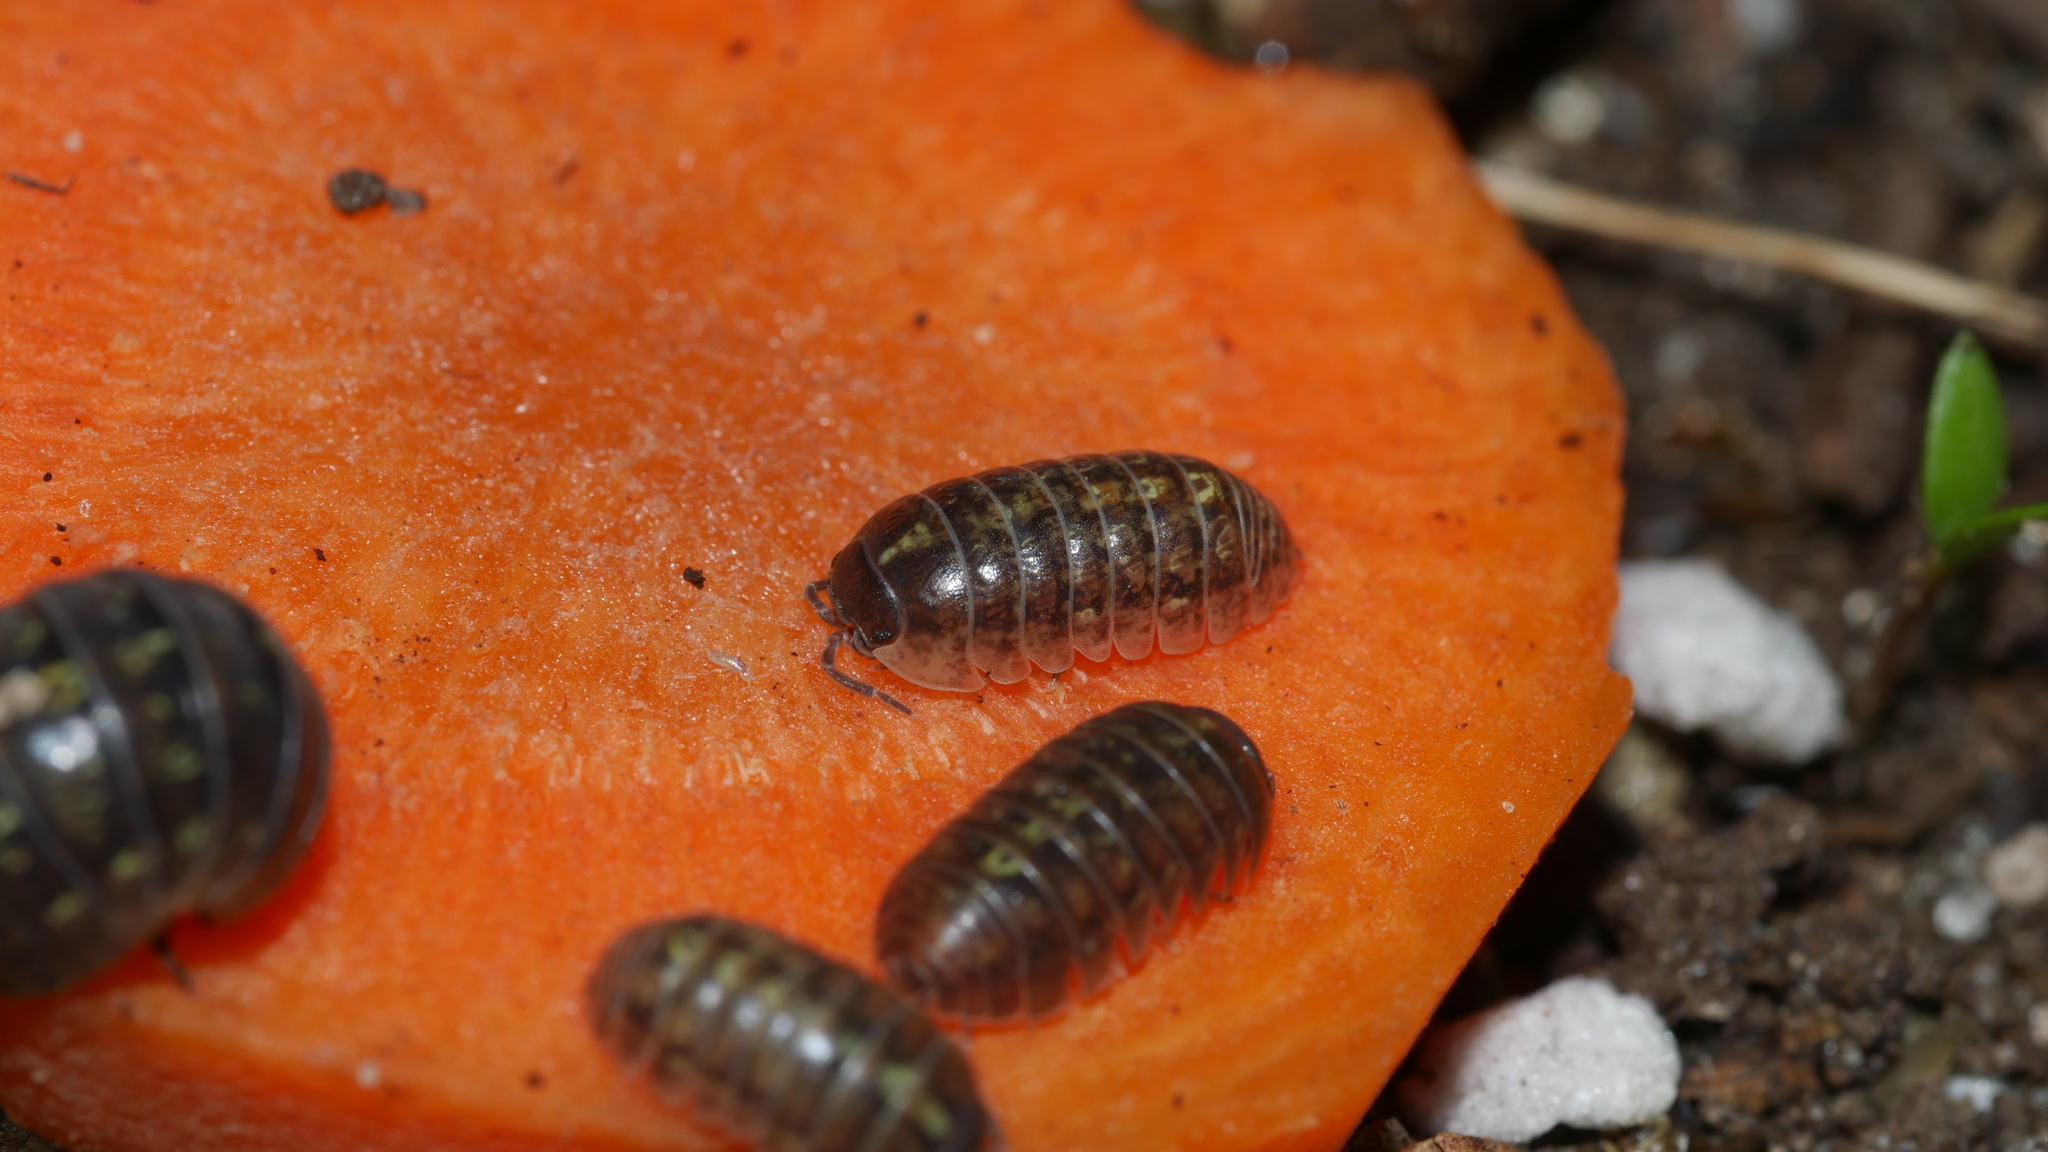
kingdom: Animalia
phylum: Arthropoda
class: Malacostraca
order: Isopoda
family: Armadillidiidae
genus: Armadillidium
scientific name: Armadillidium vulgare
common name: Common pill woodlouse
